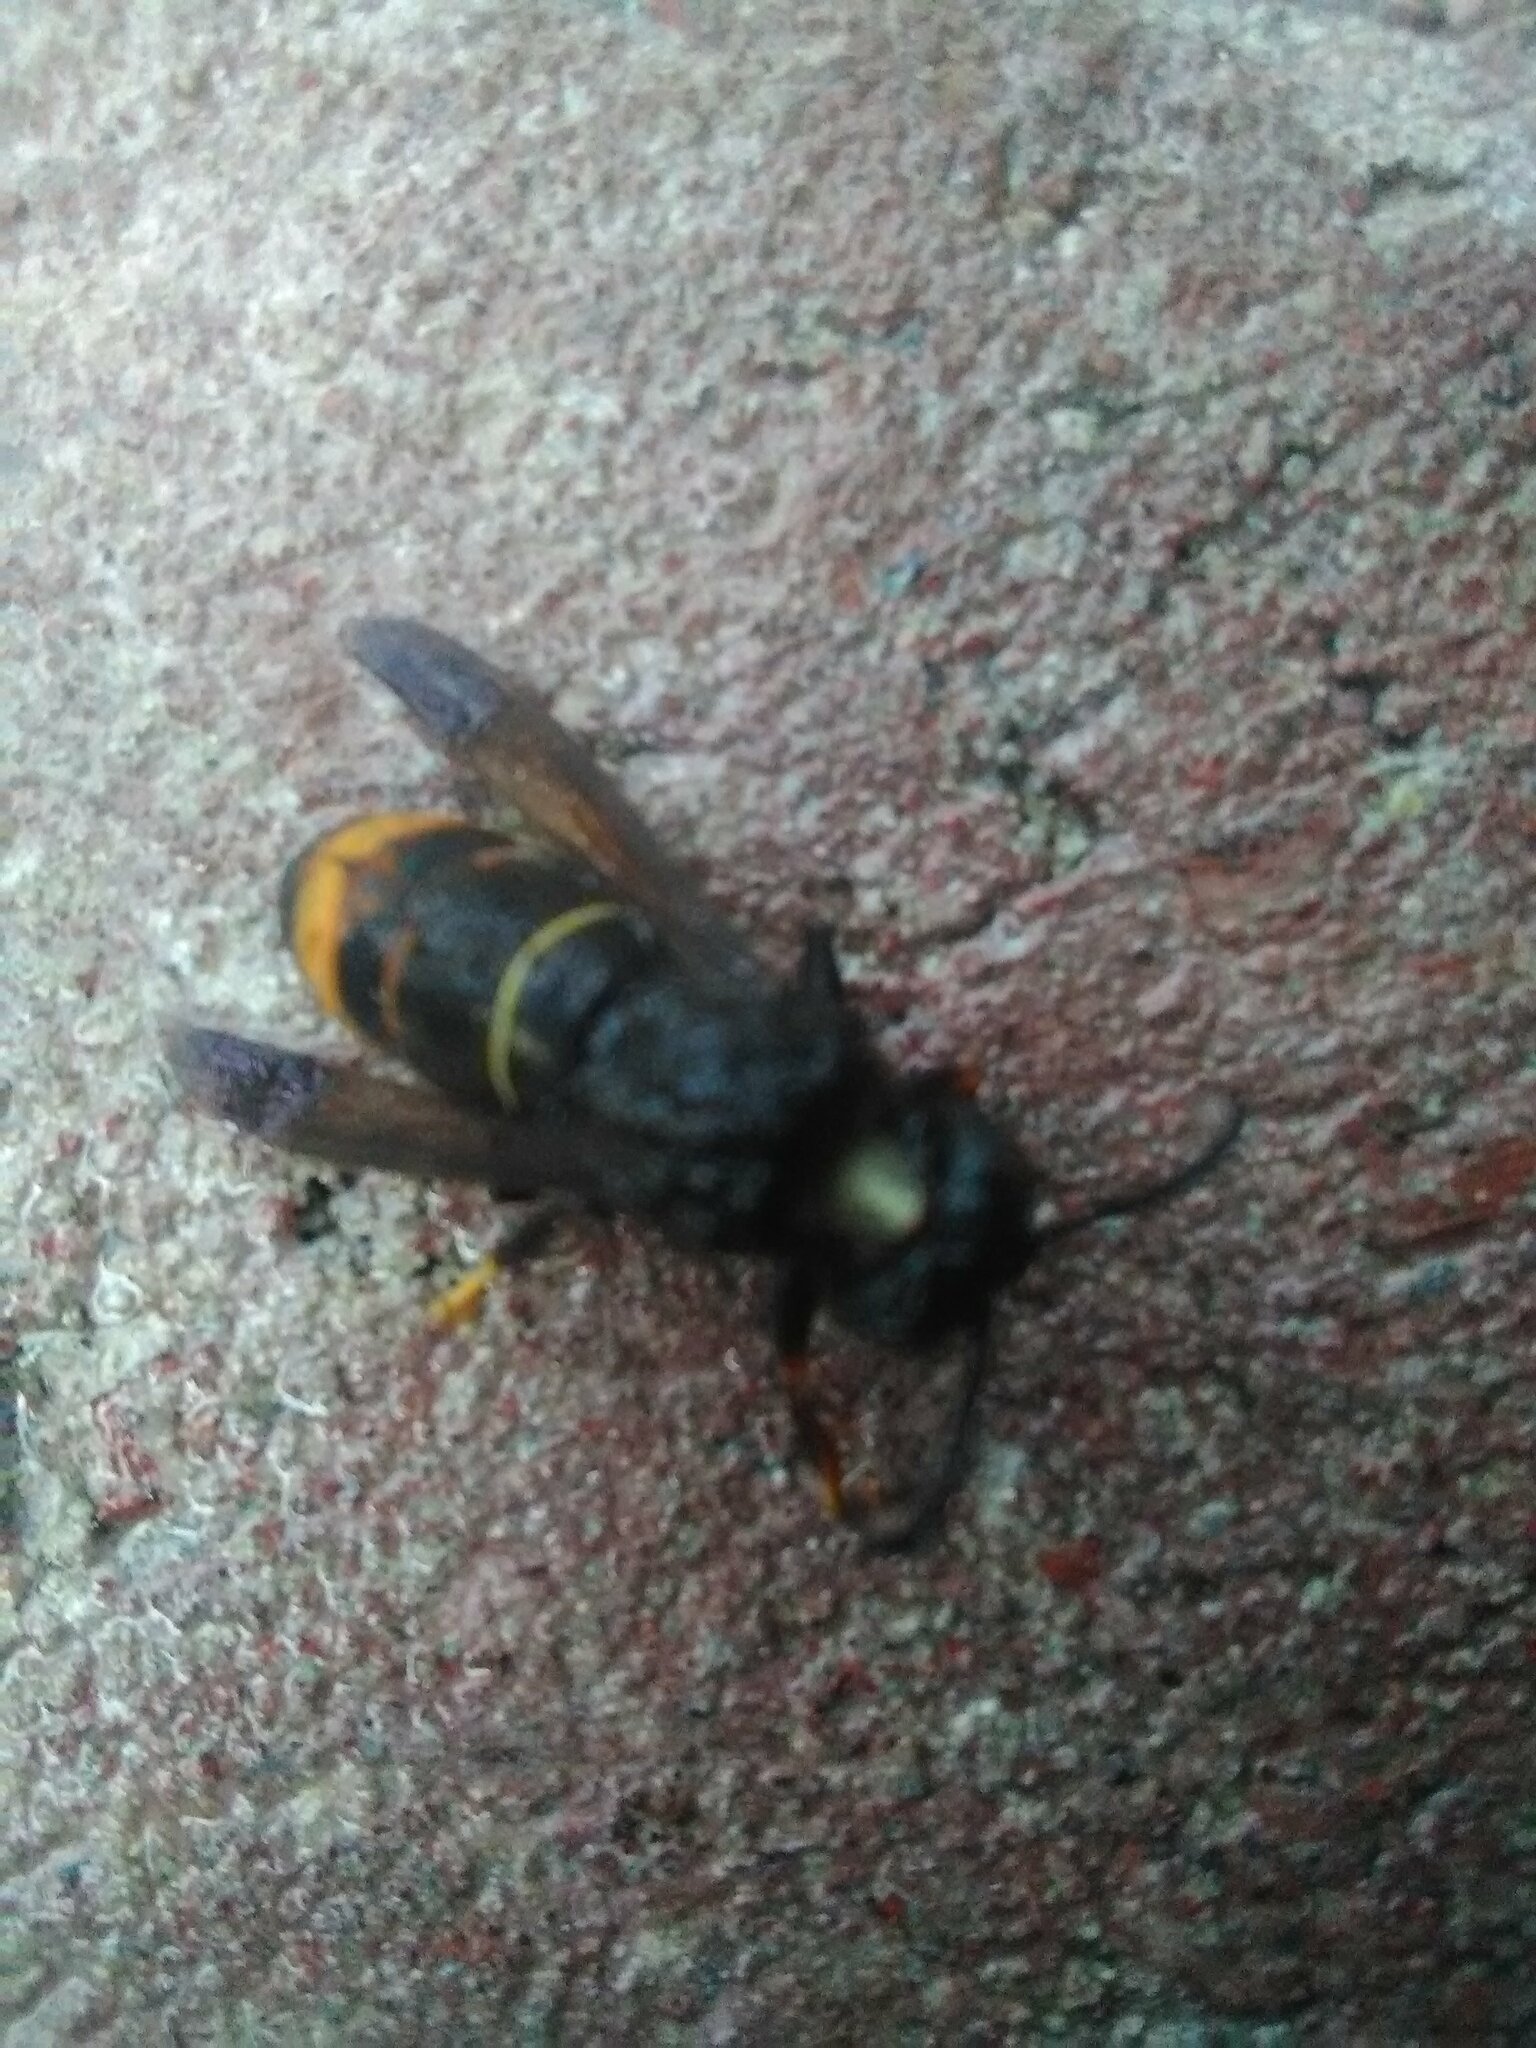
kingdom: Animalia
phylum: Arthropoda
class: Insecta
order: Hymenoptera
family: Vespidae
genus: Vespa
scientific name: Vespa velutina
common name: Asian hornet
